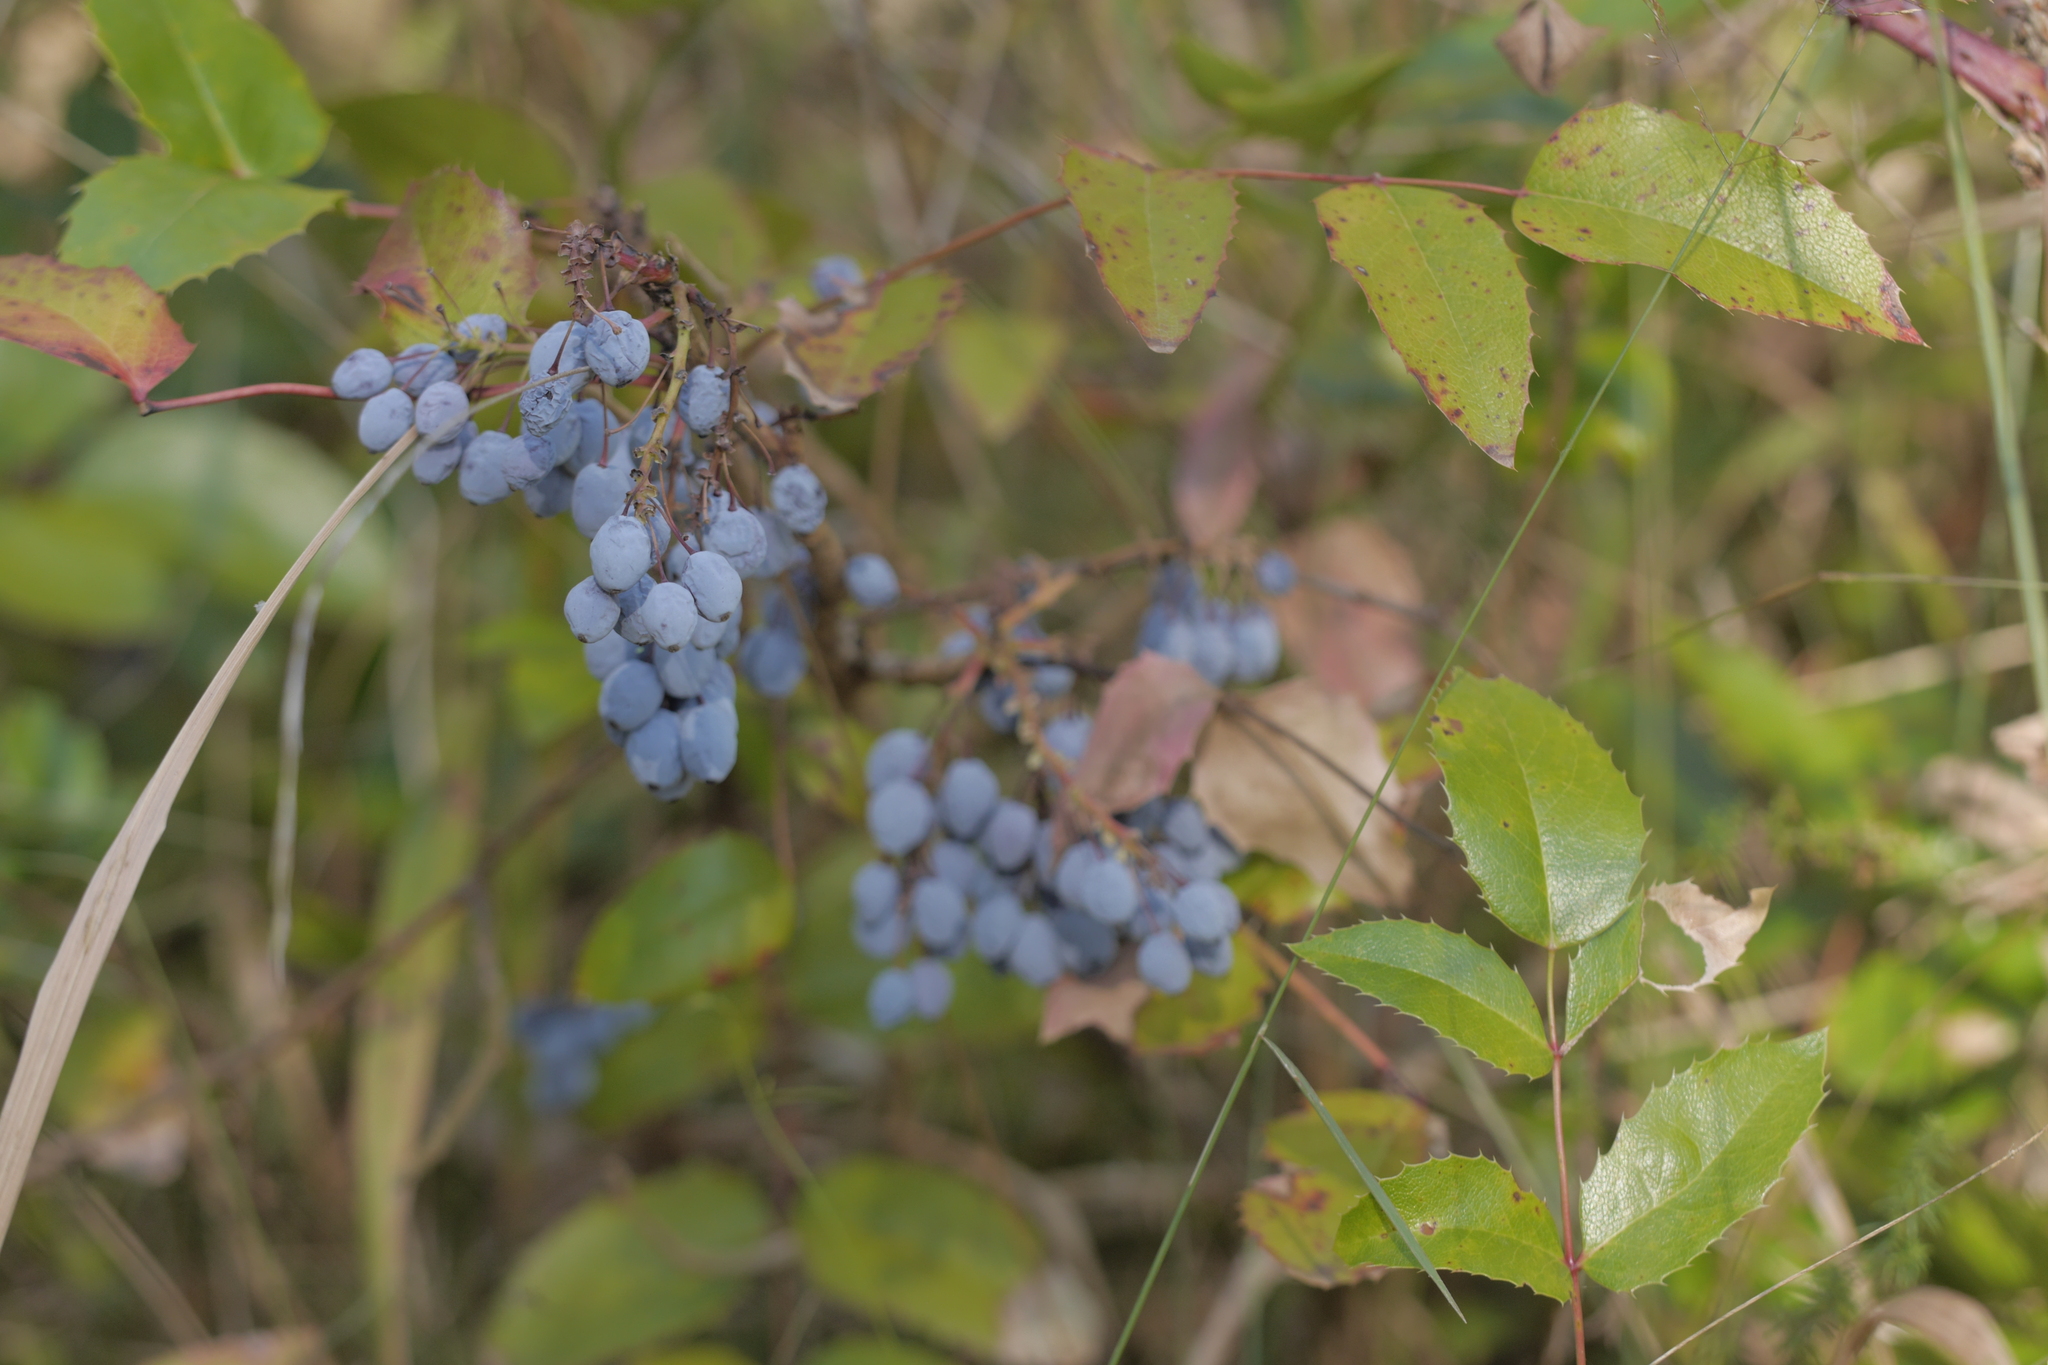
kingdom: Plantae
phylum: Tracheophyta
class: Magnoliopsida
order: Ranunculales
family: Berberidaceae
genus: Mahonia
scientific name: Mahonia aquifolium
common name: Oregon-grape
